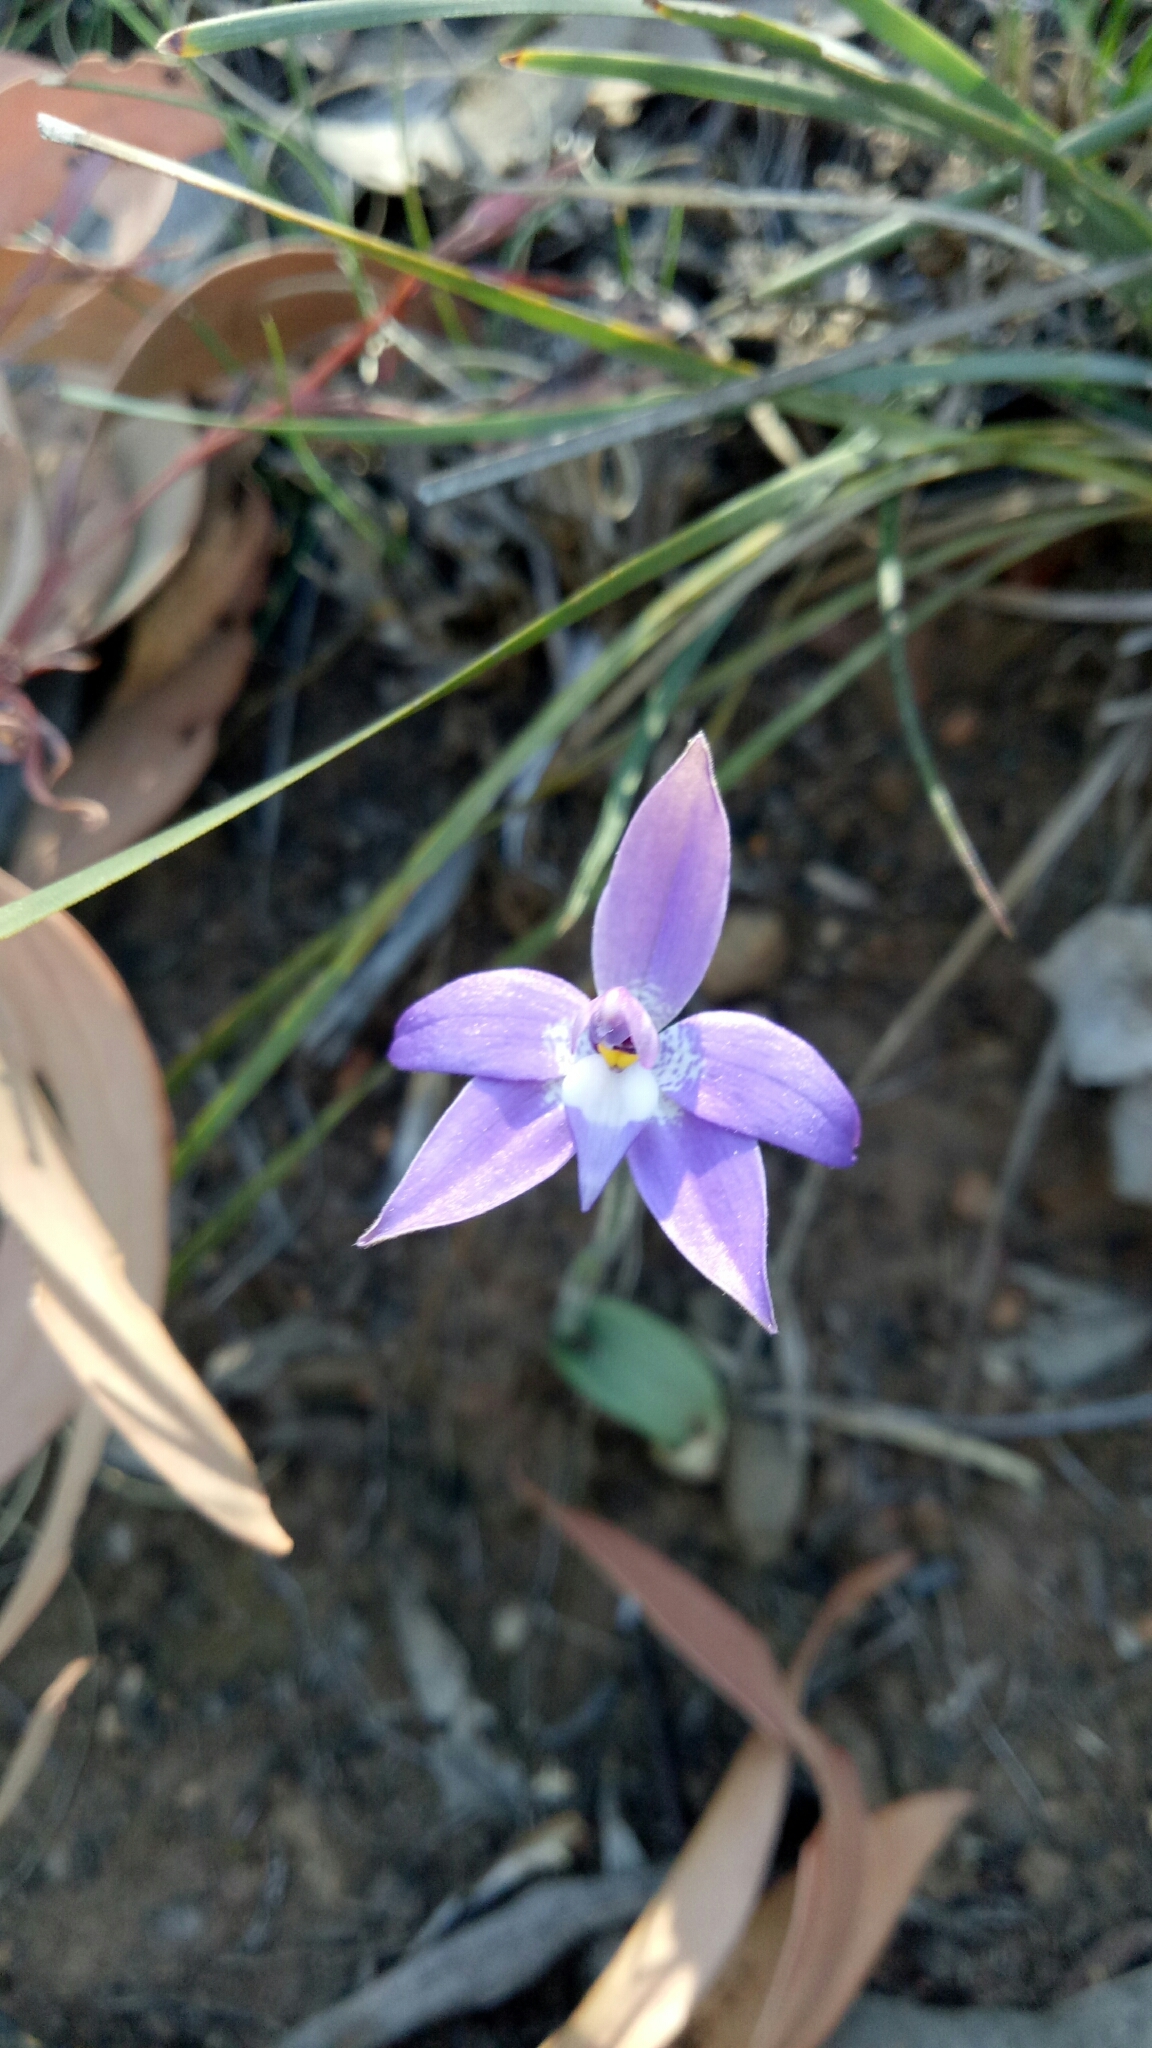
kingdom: Plantae
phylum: Tracheophyta
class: Liliopsida
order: Asparagales
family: Orchidaceae
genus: Caladenia
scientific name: Caladenia major
